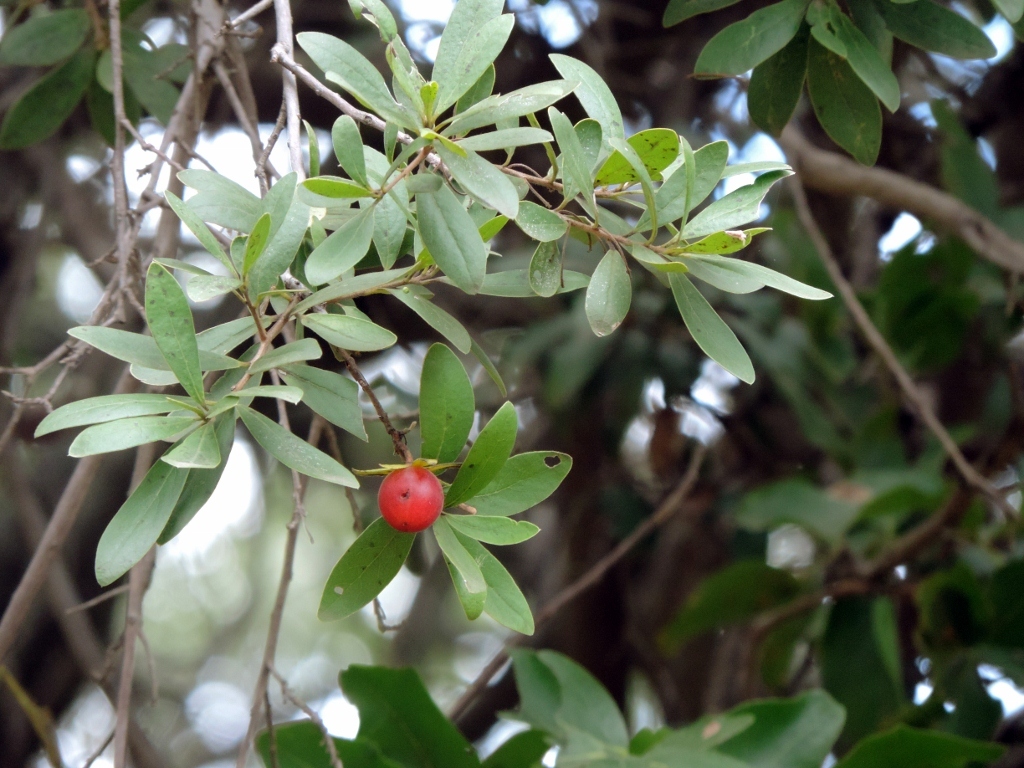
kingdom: Plantae
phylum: Tracheophyta
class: Magnoliopsida
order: Ericales
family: Ebenaceae
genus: Diospyros
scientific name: Diospyros lycioides
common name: Red star apple
